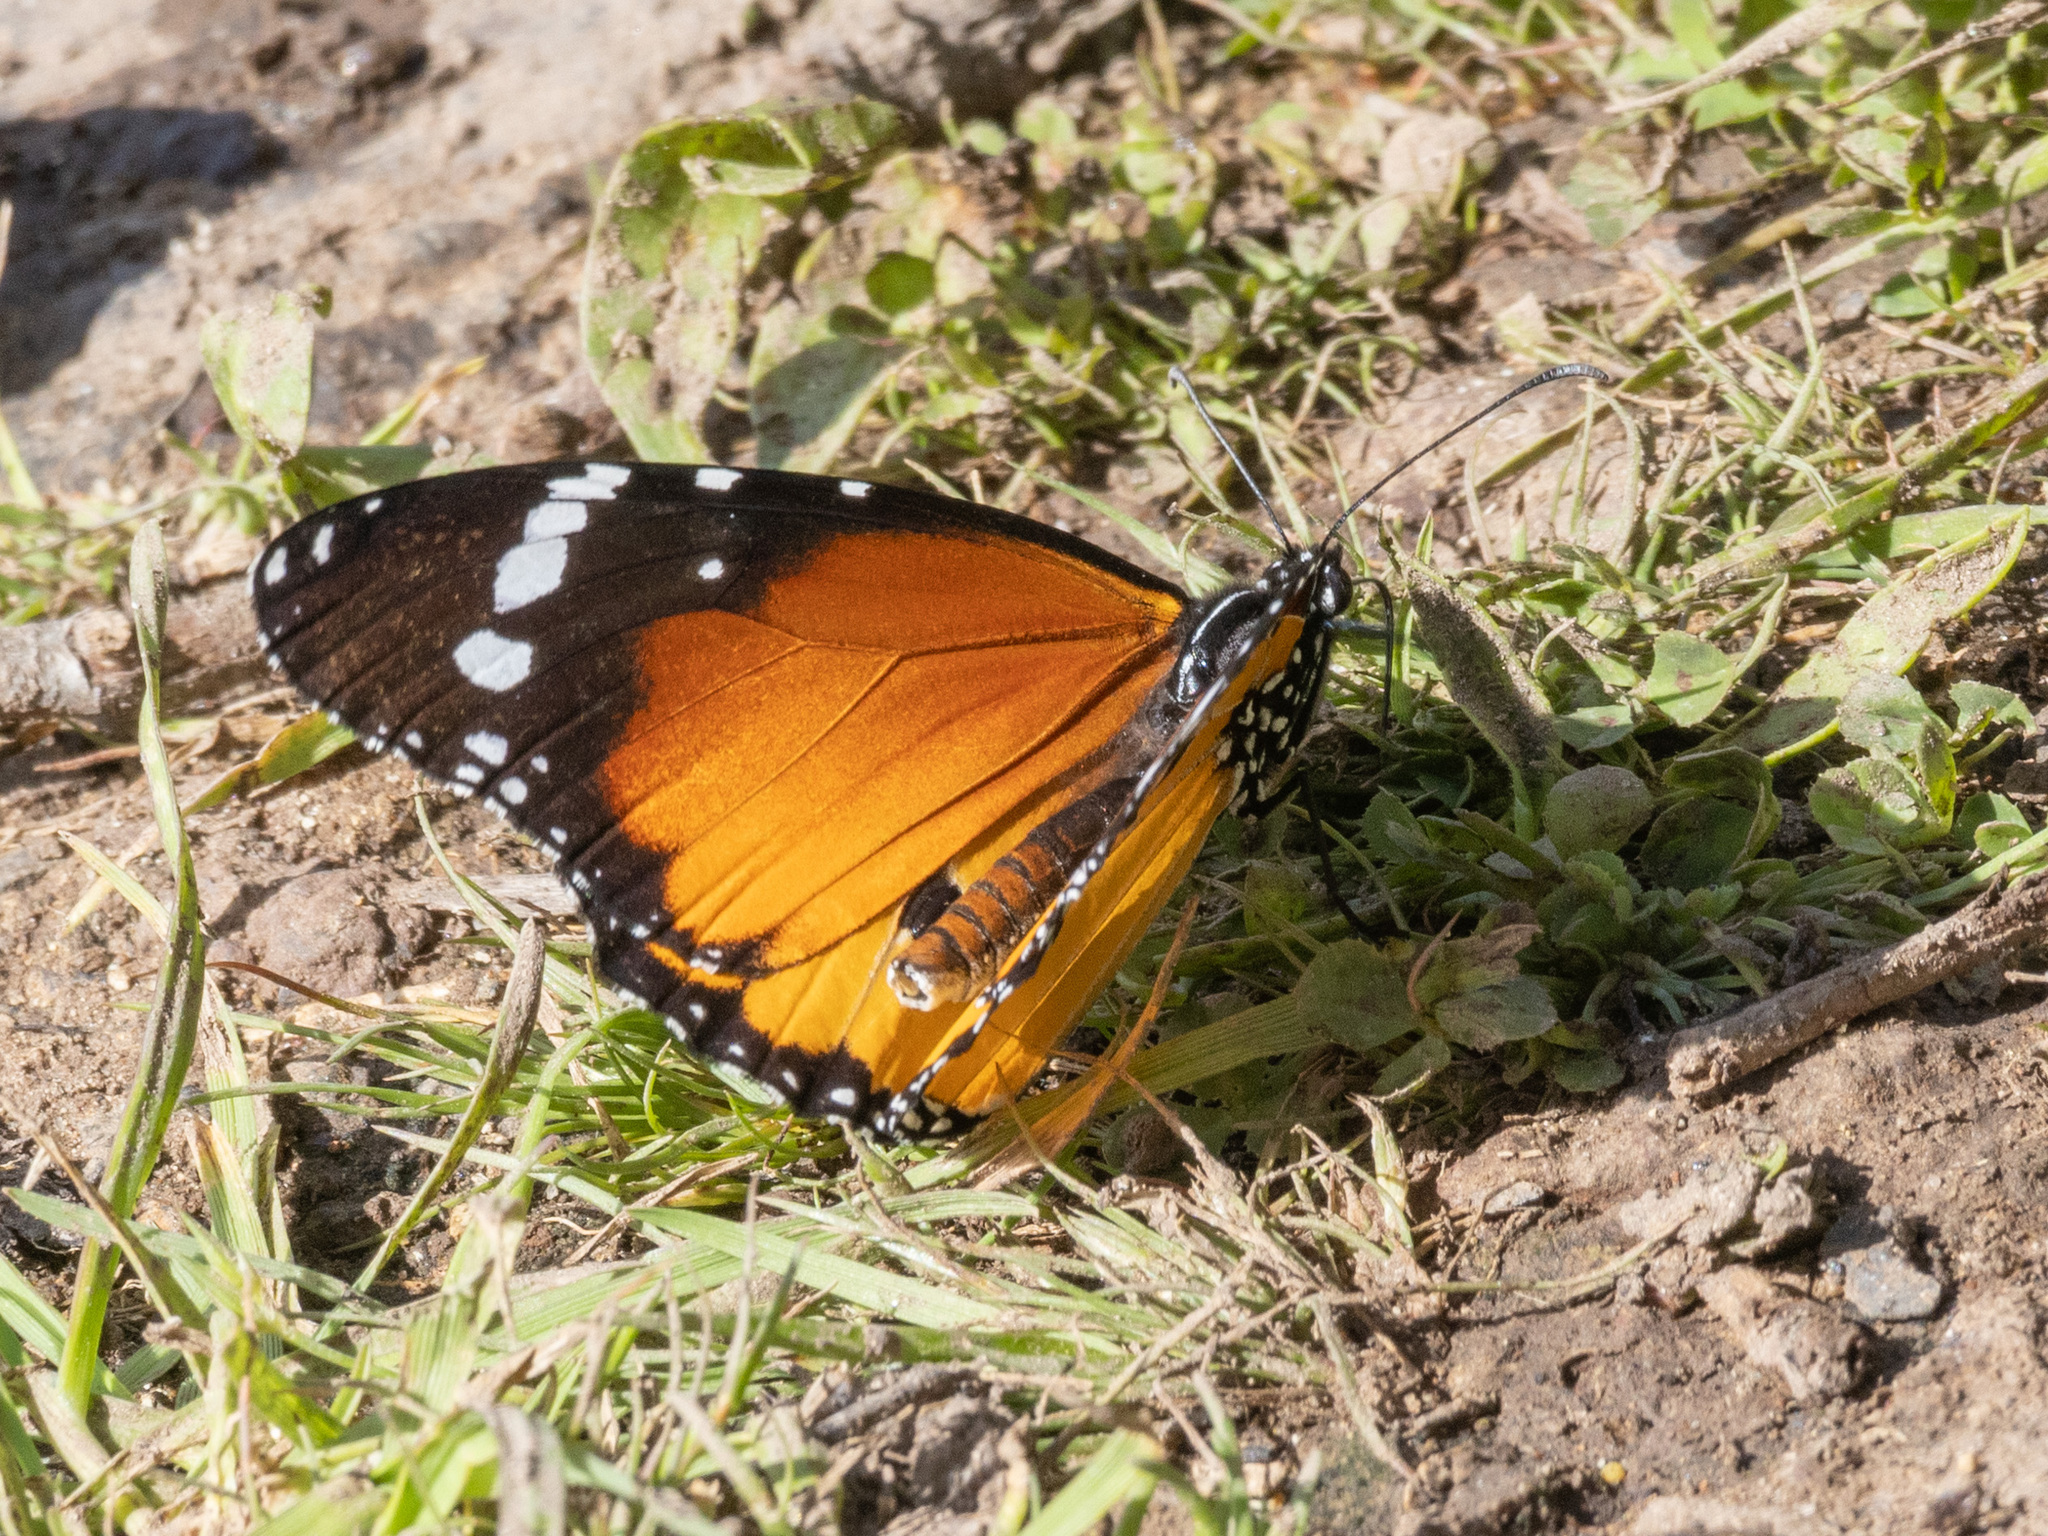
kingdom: Animalia
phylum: Arthropoda
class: Insecta
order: Lepidoptera
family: Nymphalidae
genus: Danaus
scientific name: Danaus chrysippus
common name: Plain tiger
